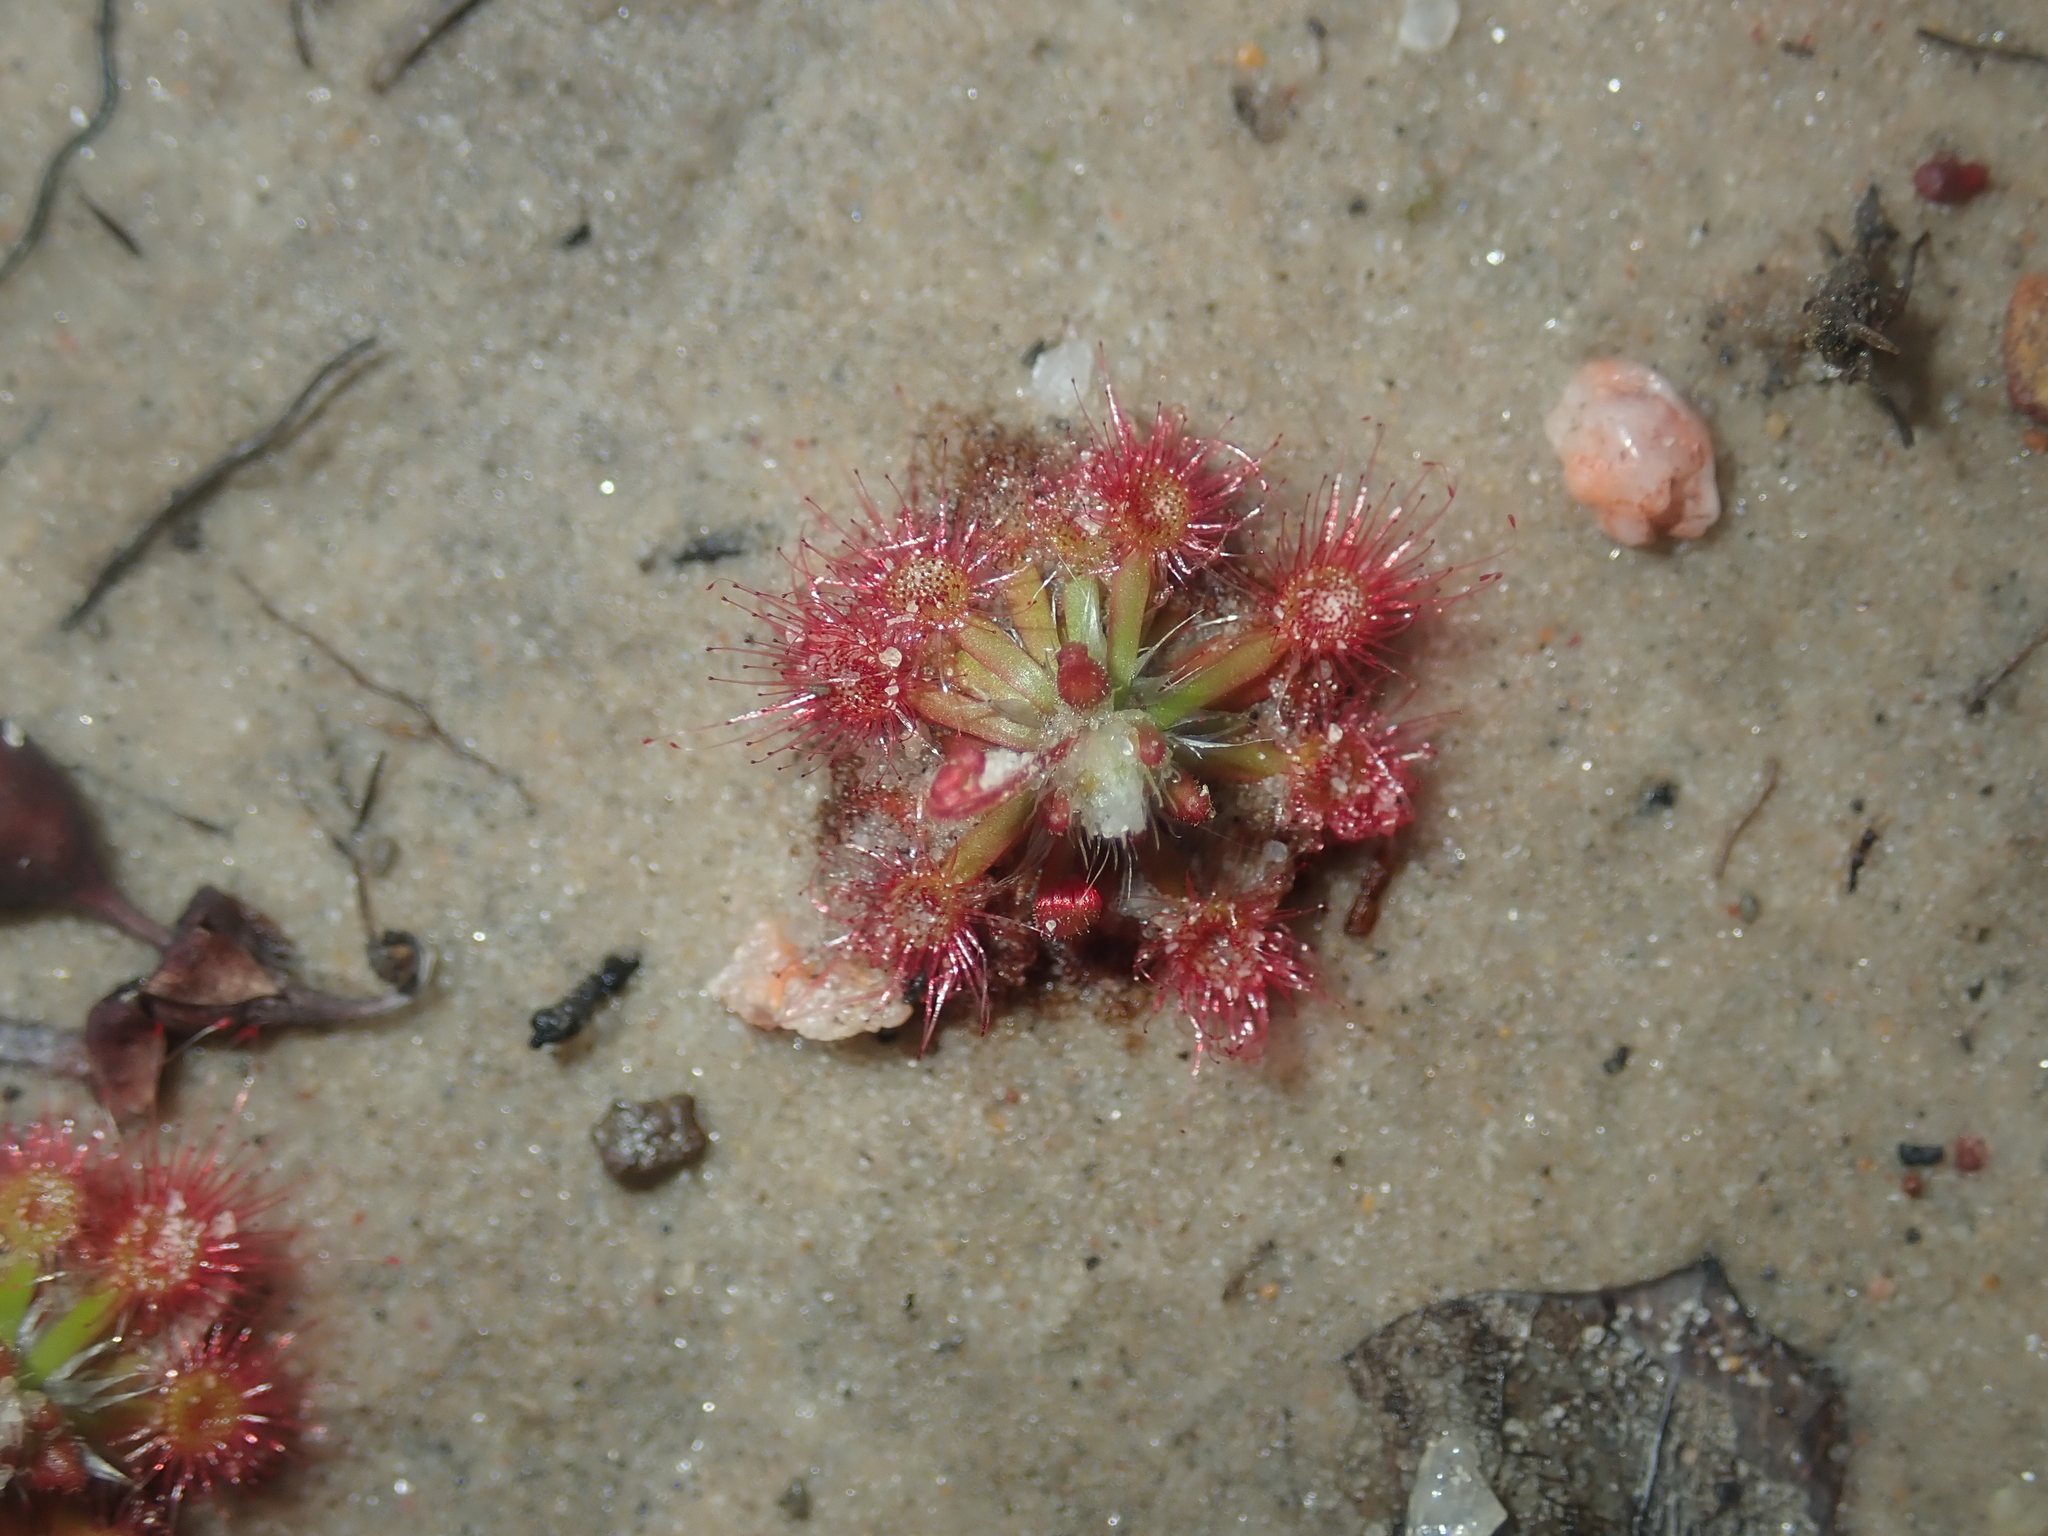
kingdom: Plantae
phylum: Tracheophyta
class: Magnoliopsida
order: Caryophyllales
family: Droseraceae
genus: Drosera
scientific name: Drosera spilos
